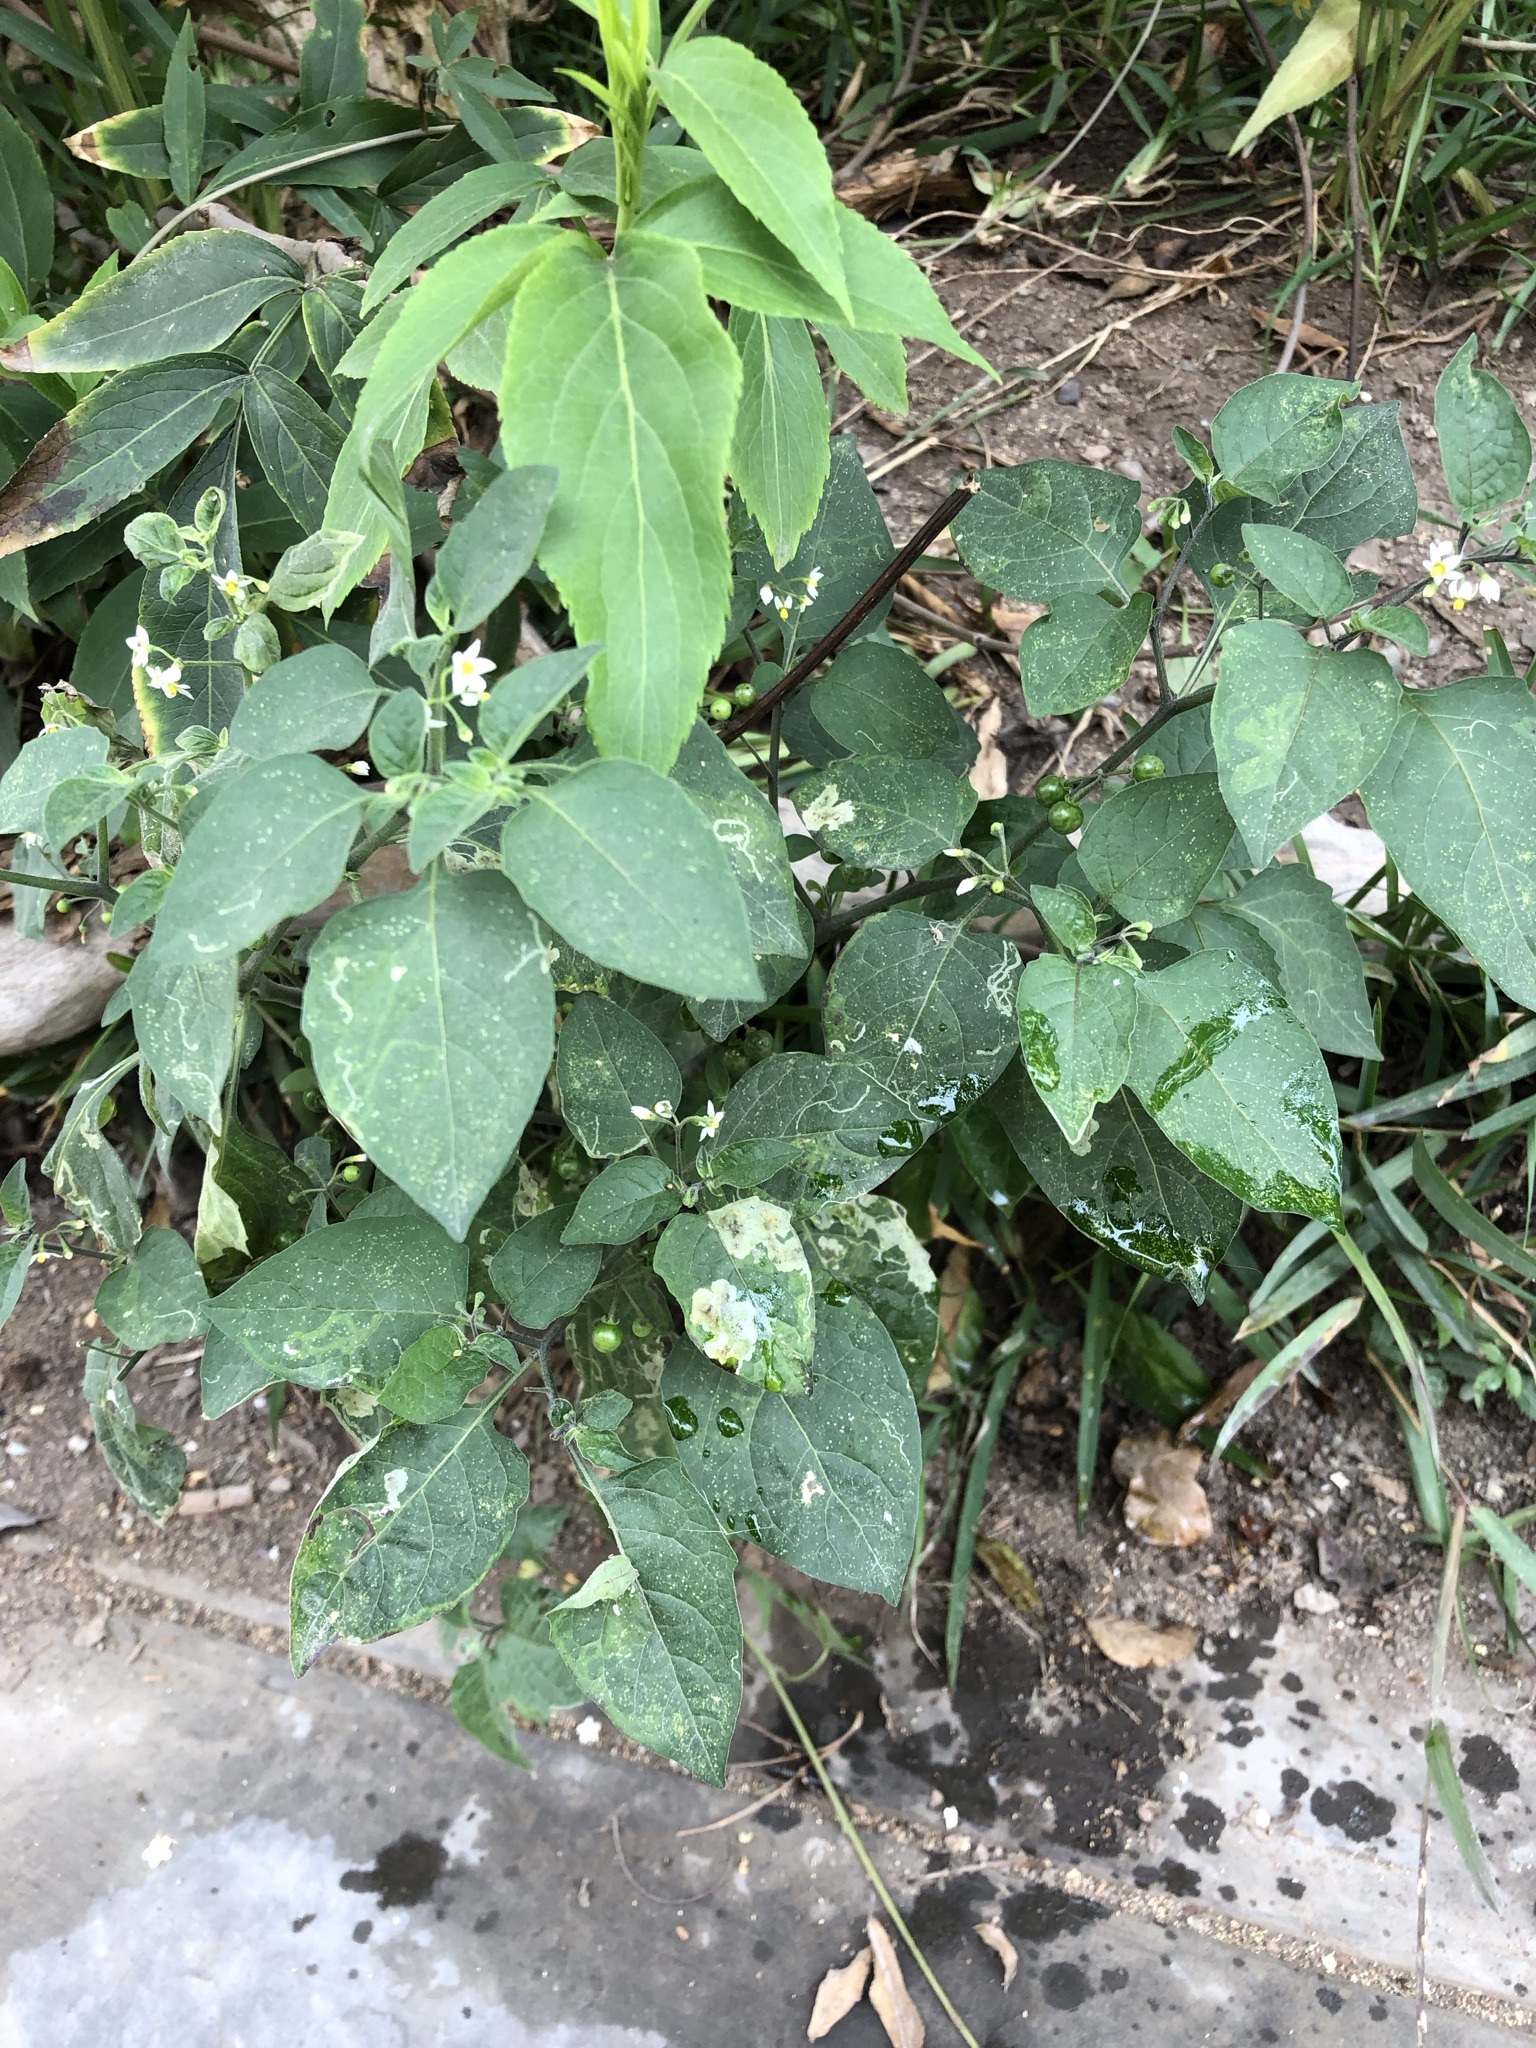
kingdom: Plantae
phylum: Tracheophyta
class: Magnoliopsida
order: Solanales
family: Solanaceae
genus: Solanum
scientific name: Solanum americanum
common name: American black nightshade
